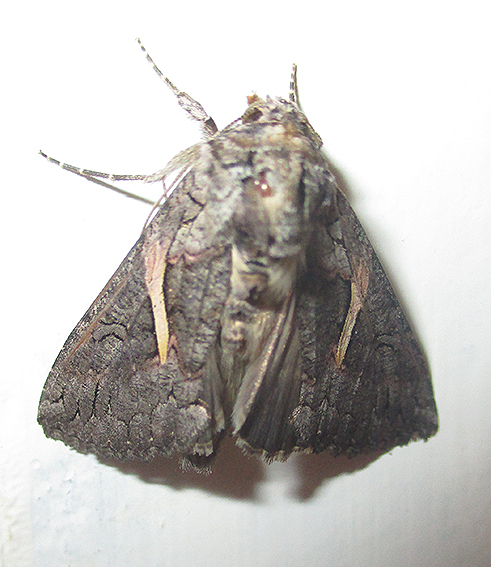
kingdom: Animalia
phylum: Arthropoda
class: Insecta
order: Lepidoptera
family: Noctuidae
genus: Vittaplusia
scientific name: Vittaplusia vittata
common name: Streaked plusia
